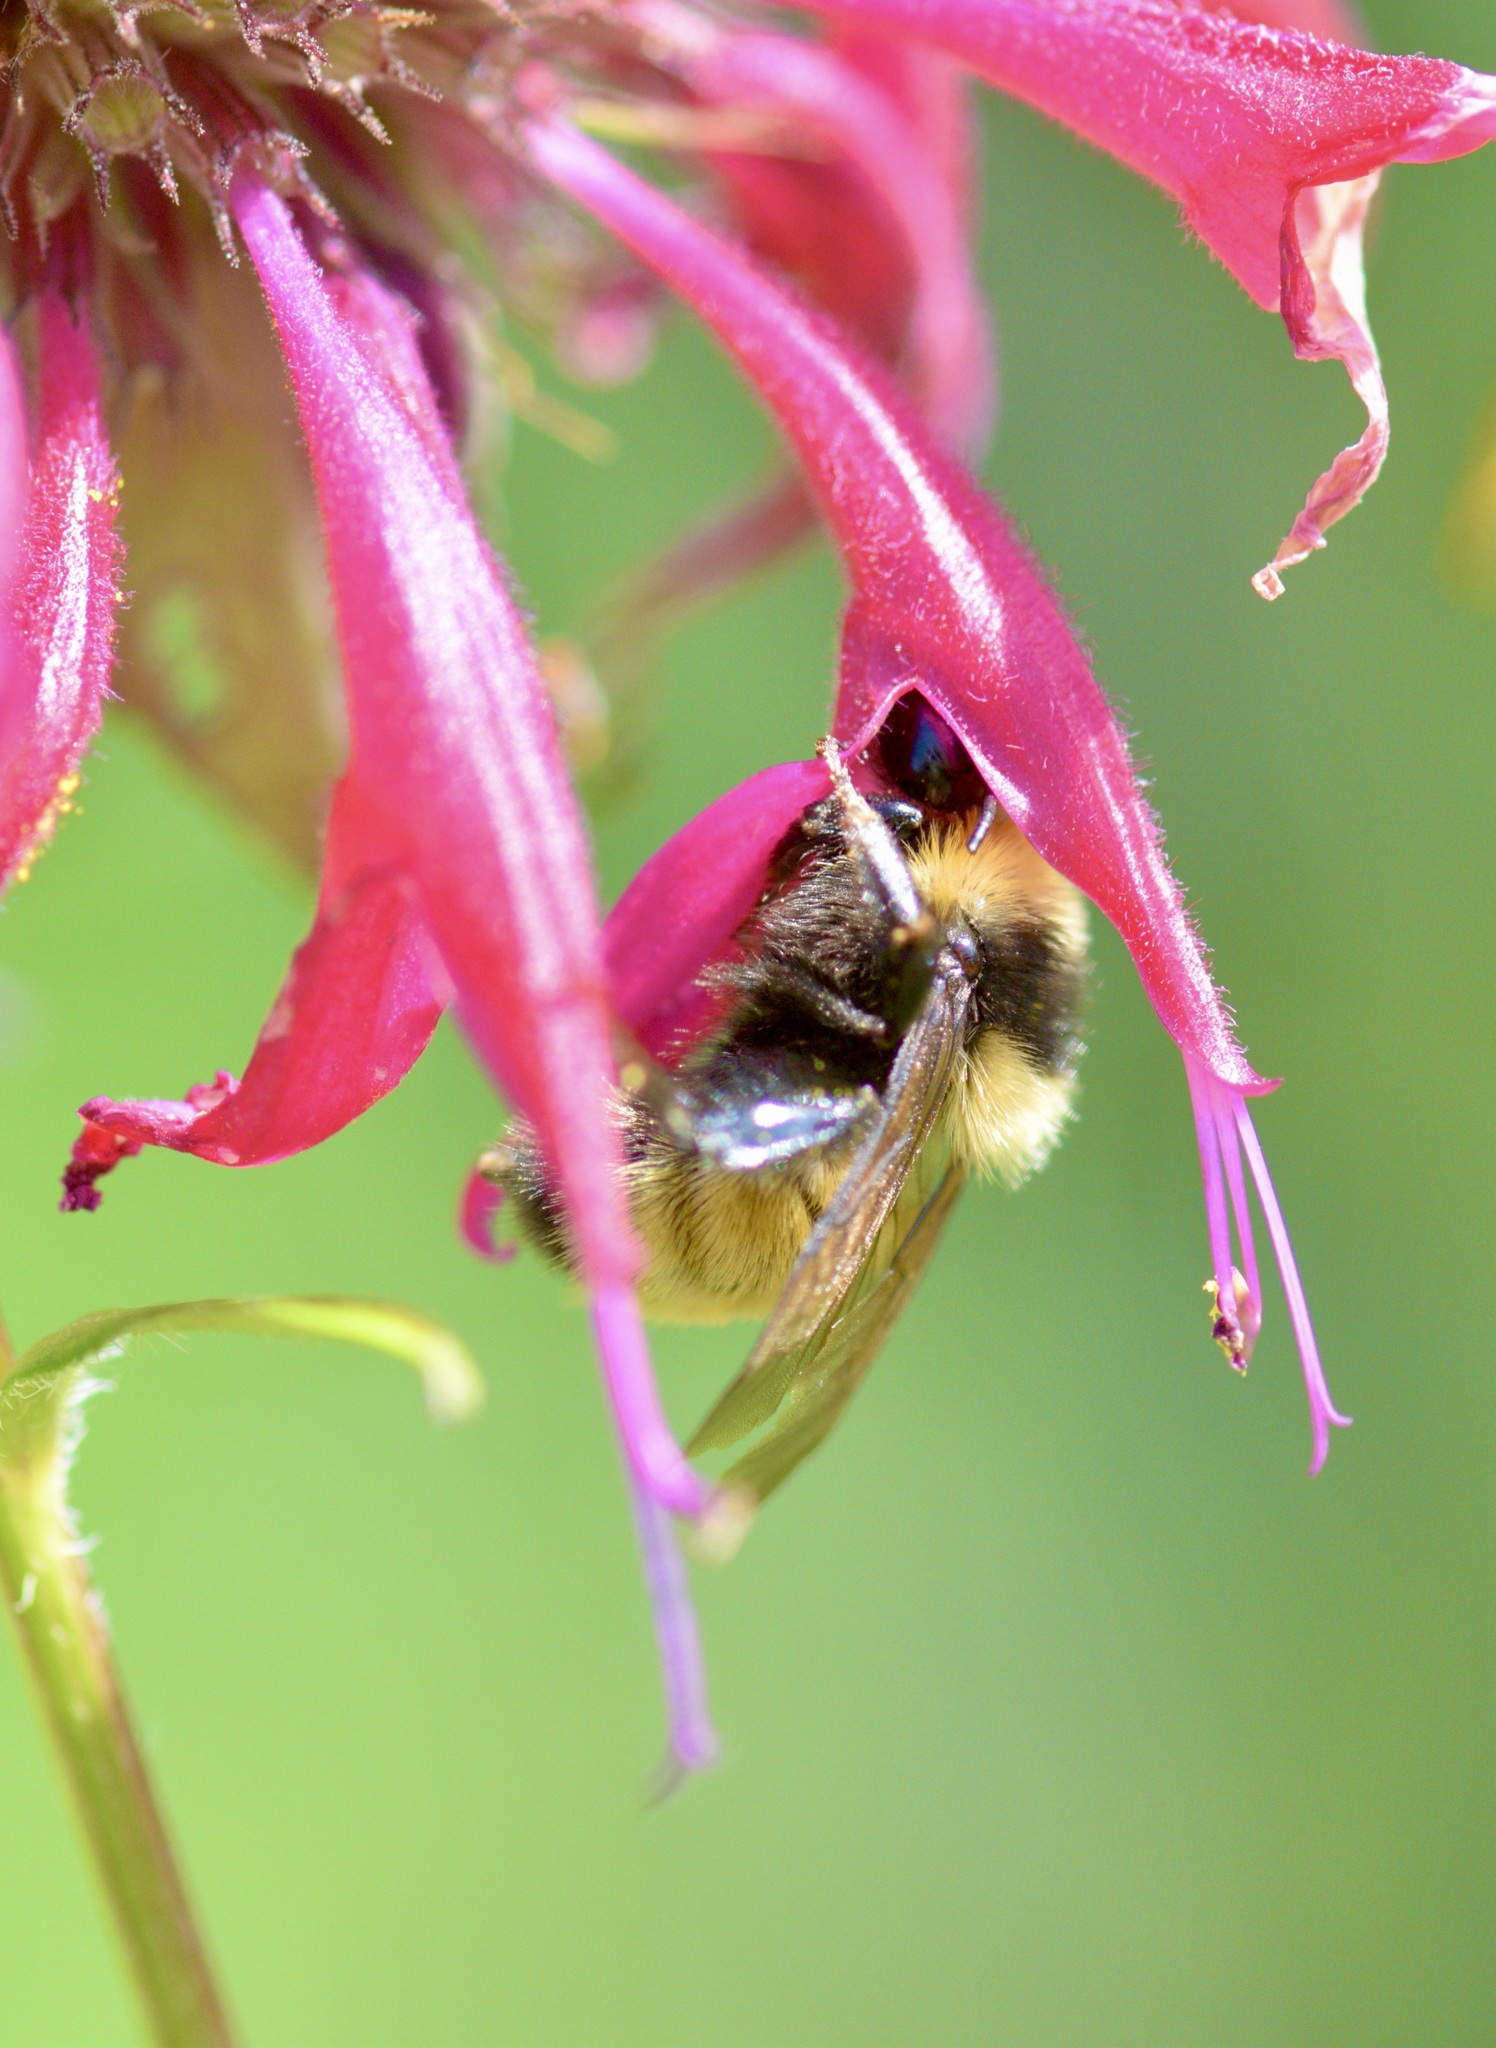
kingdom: Animalia
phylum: Arthropoda
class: Insecta
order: Hymenoptera
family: Apidae
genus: Bombus
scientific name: Bombus borealis
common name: Northern amber bumble bee
